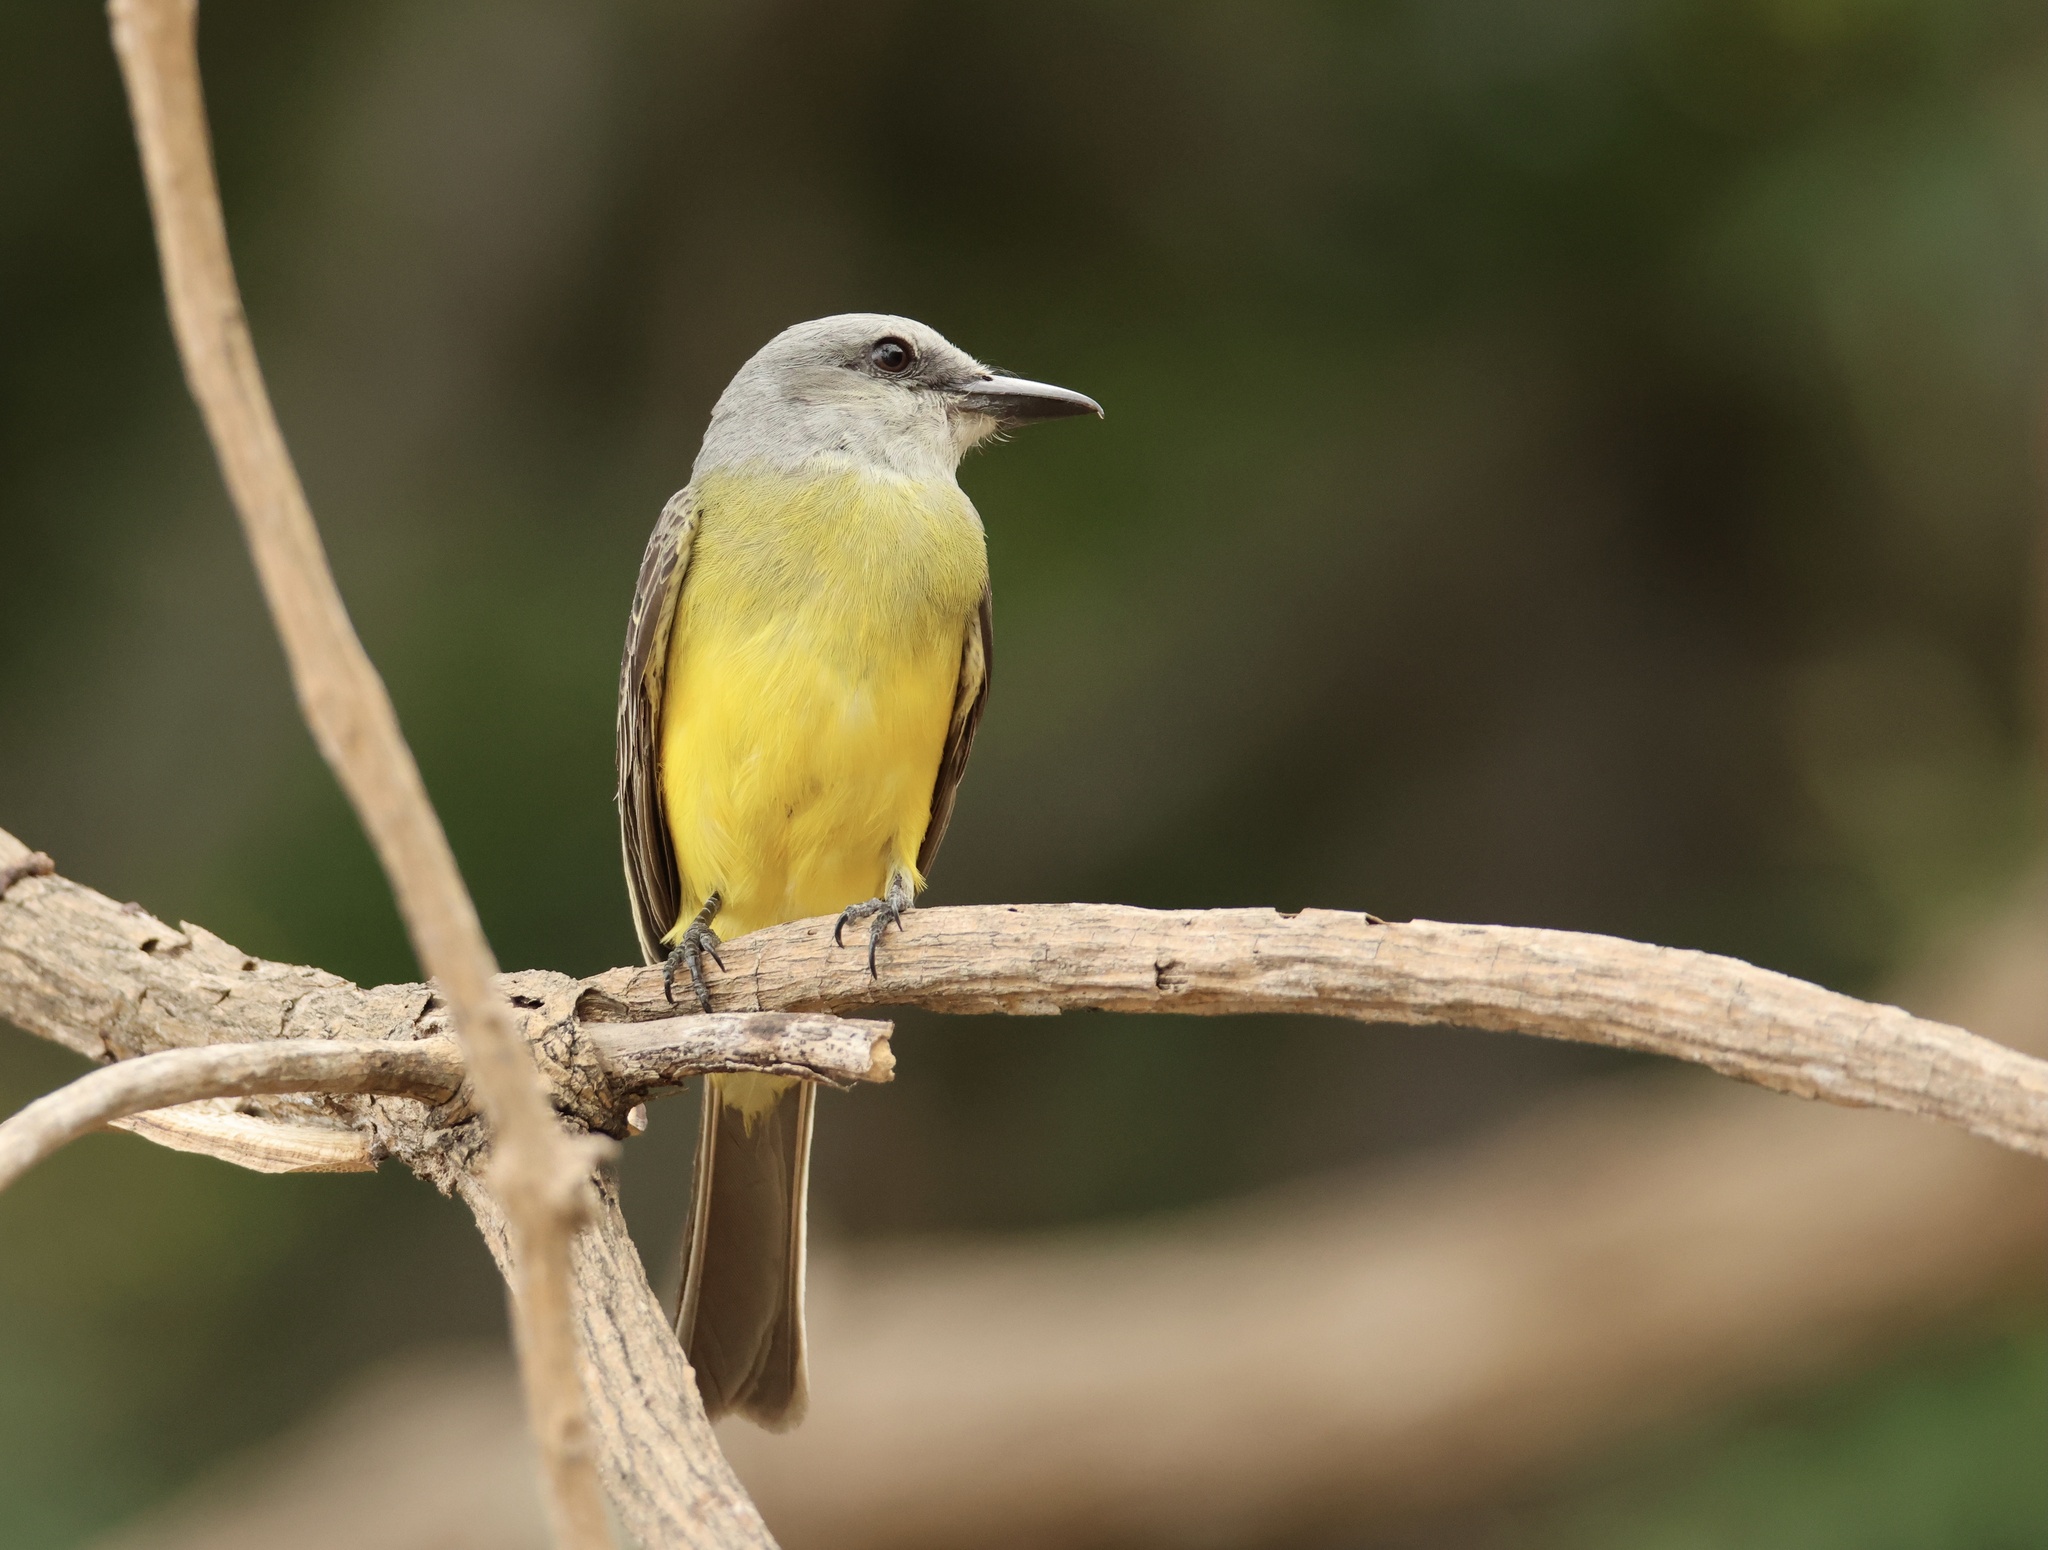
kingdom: Animalia
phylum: Chordata
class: Aves
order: Passeriformes
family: Tyrannidae
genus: Tyrannus
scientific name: Tyrannus melancholicus
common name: Tropical kingbird
